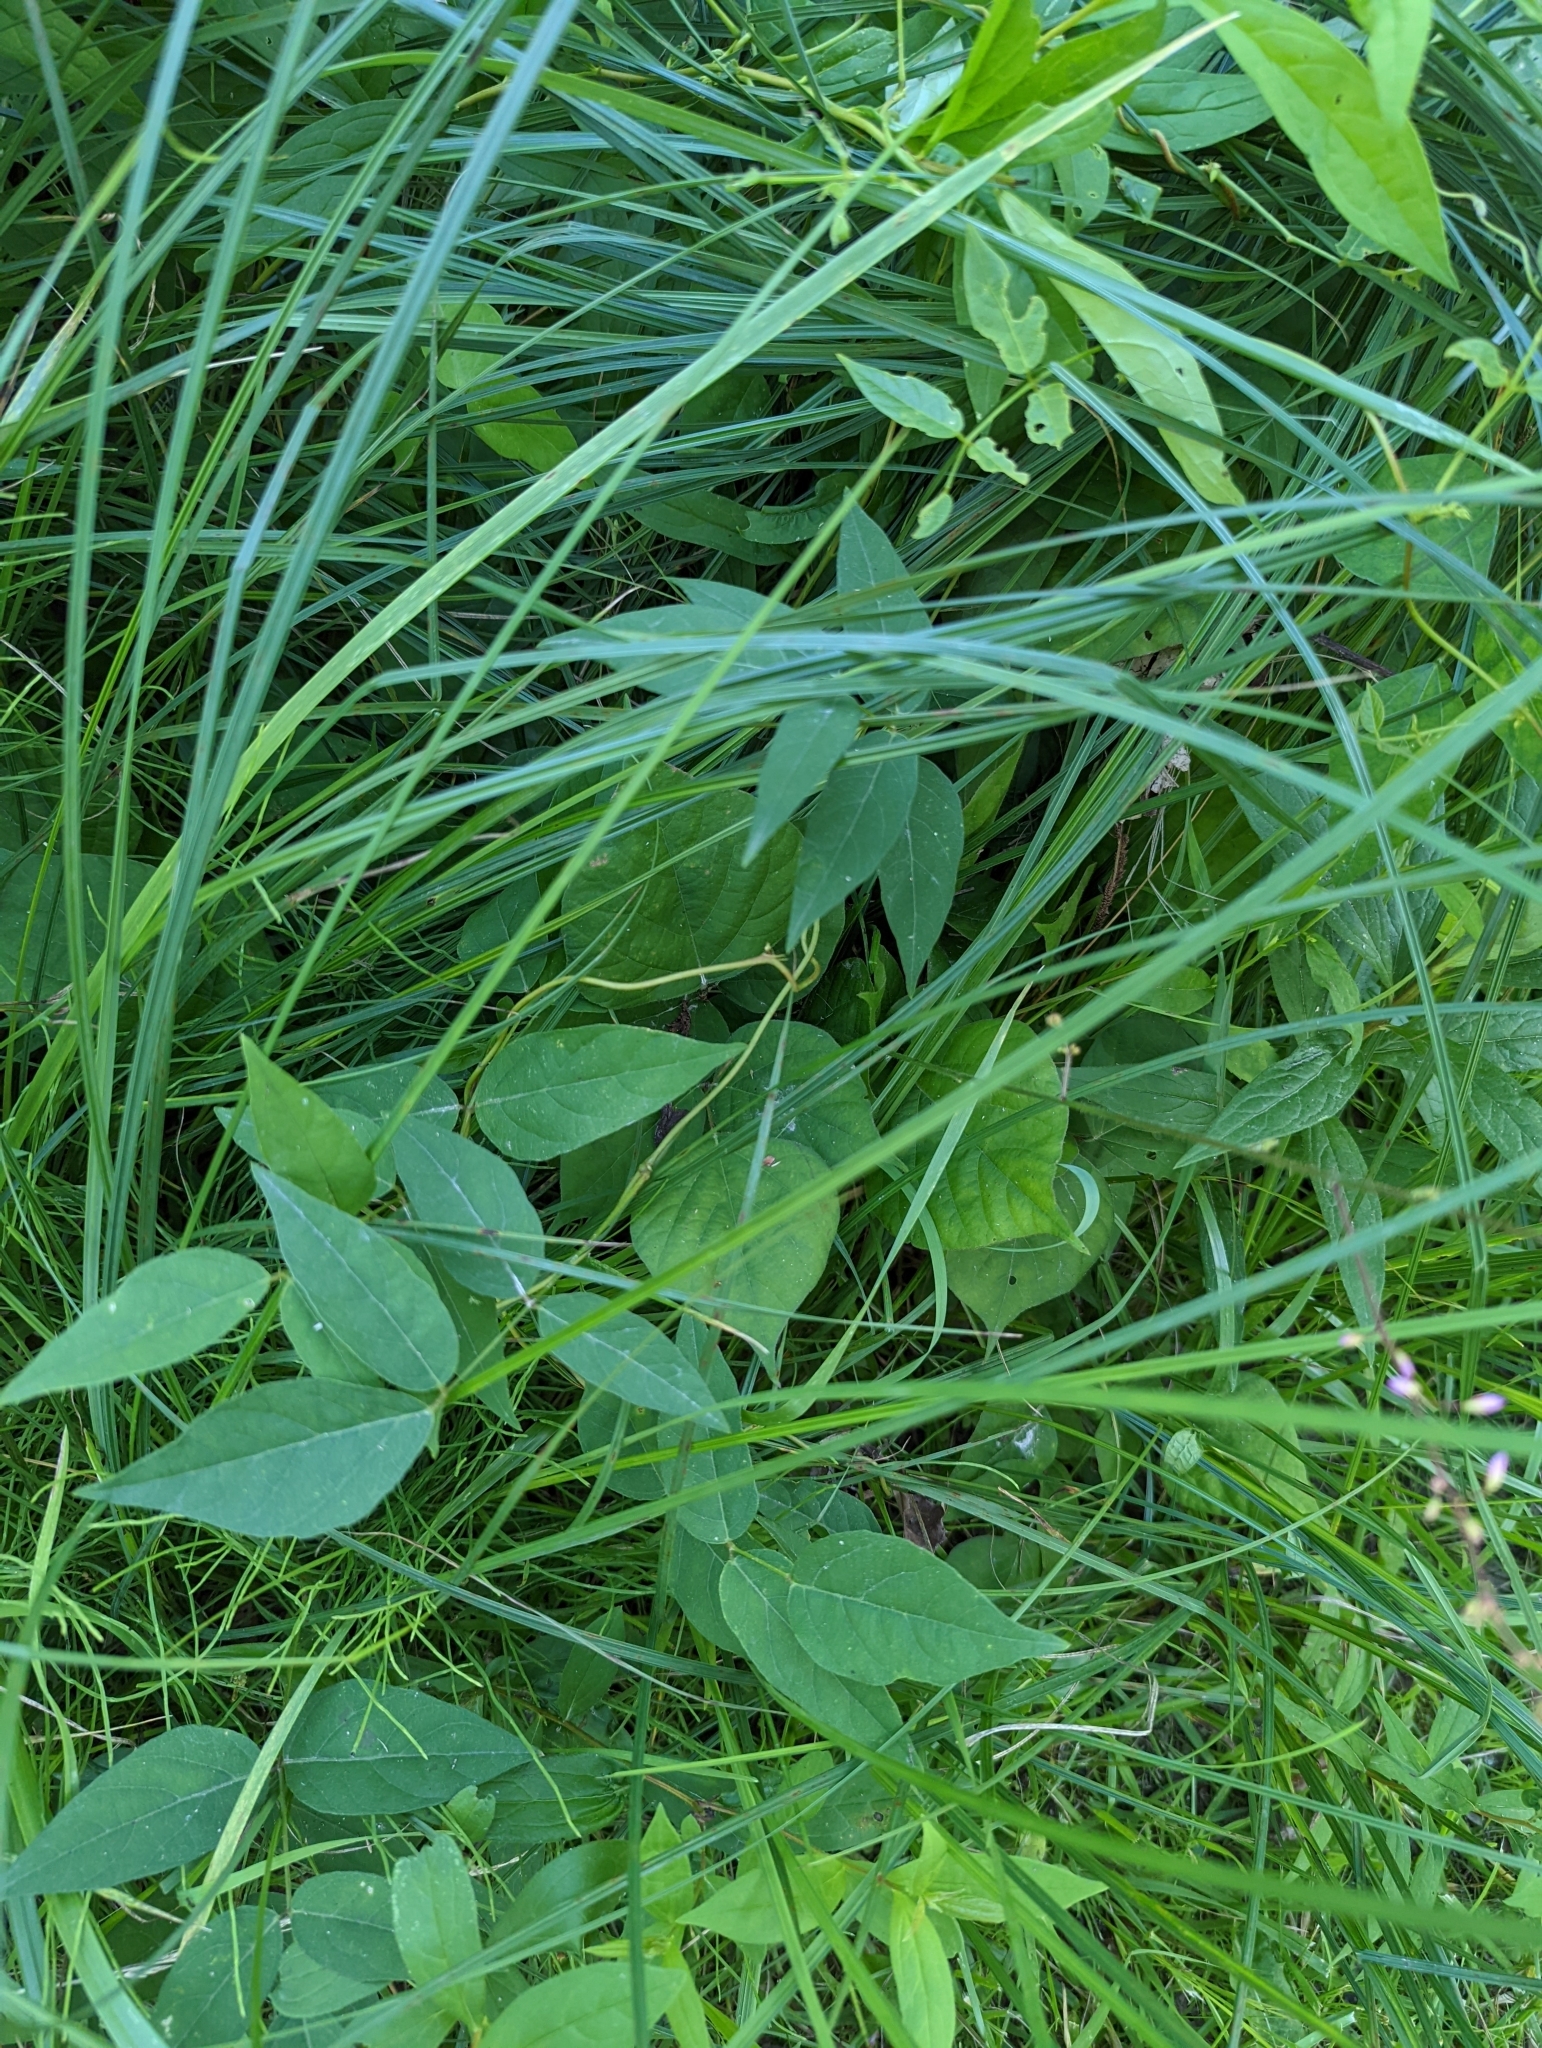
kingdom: Plantae
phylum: Tracheophyta
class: Magnoliopsida
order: Fabales
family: Fabaceae
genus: Hylodesmum
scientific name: Hylodesmum glutinosum
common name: Clustered-leaved tick-trefoil
